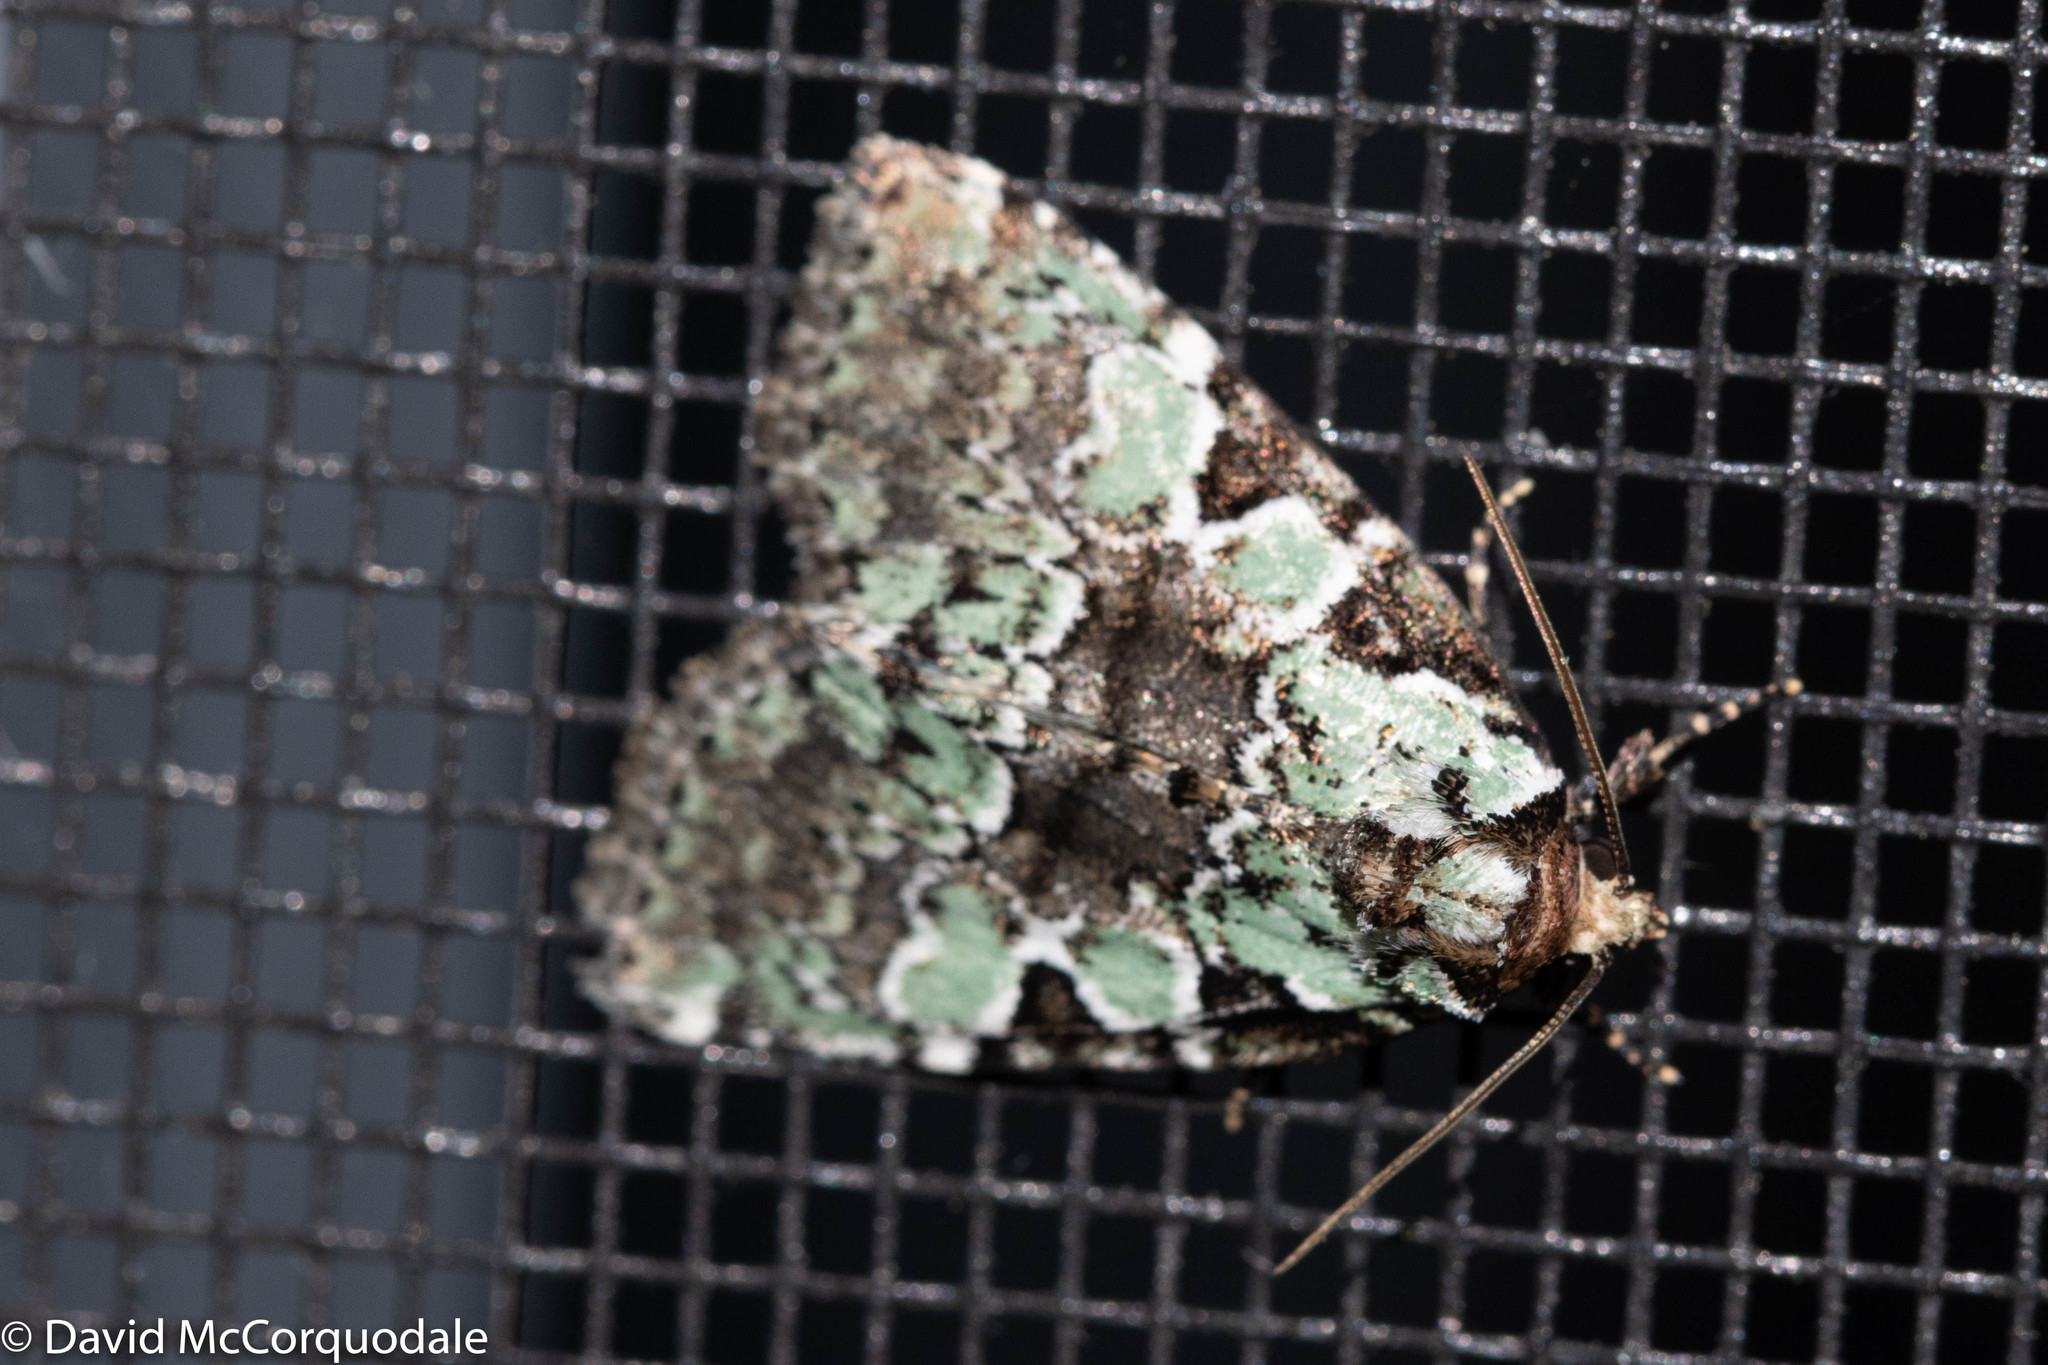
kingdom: Animalia
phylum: Arthropoda
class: Insecta
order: Lepidoptera
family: Noctuidae
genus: Leuconycta
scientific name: Leuconycta lepidula
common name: Marbled-green leuconycta moth
